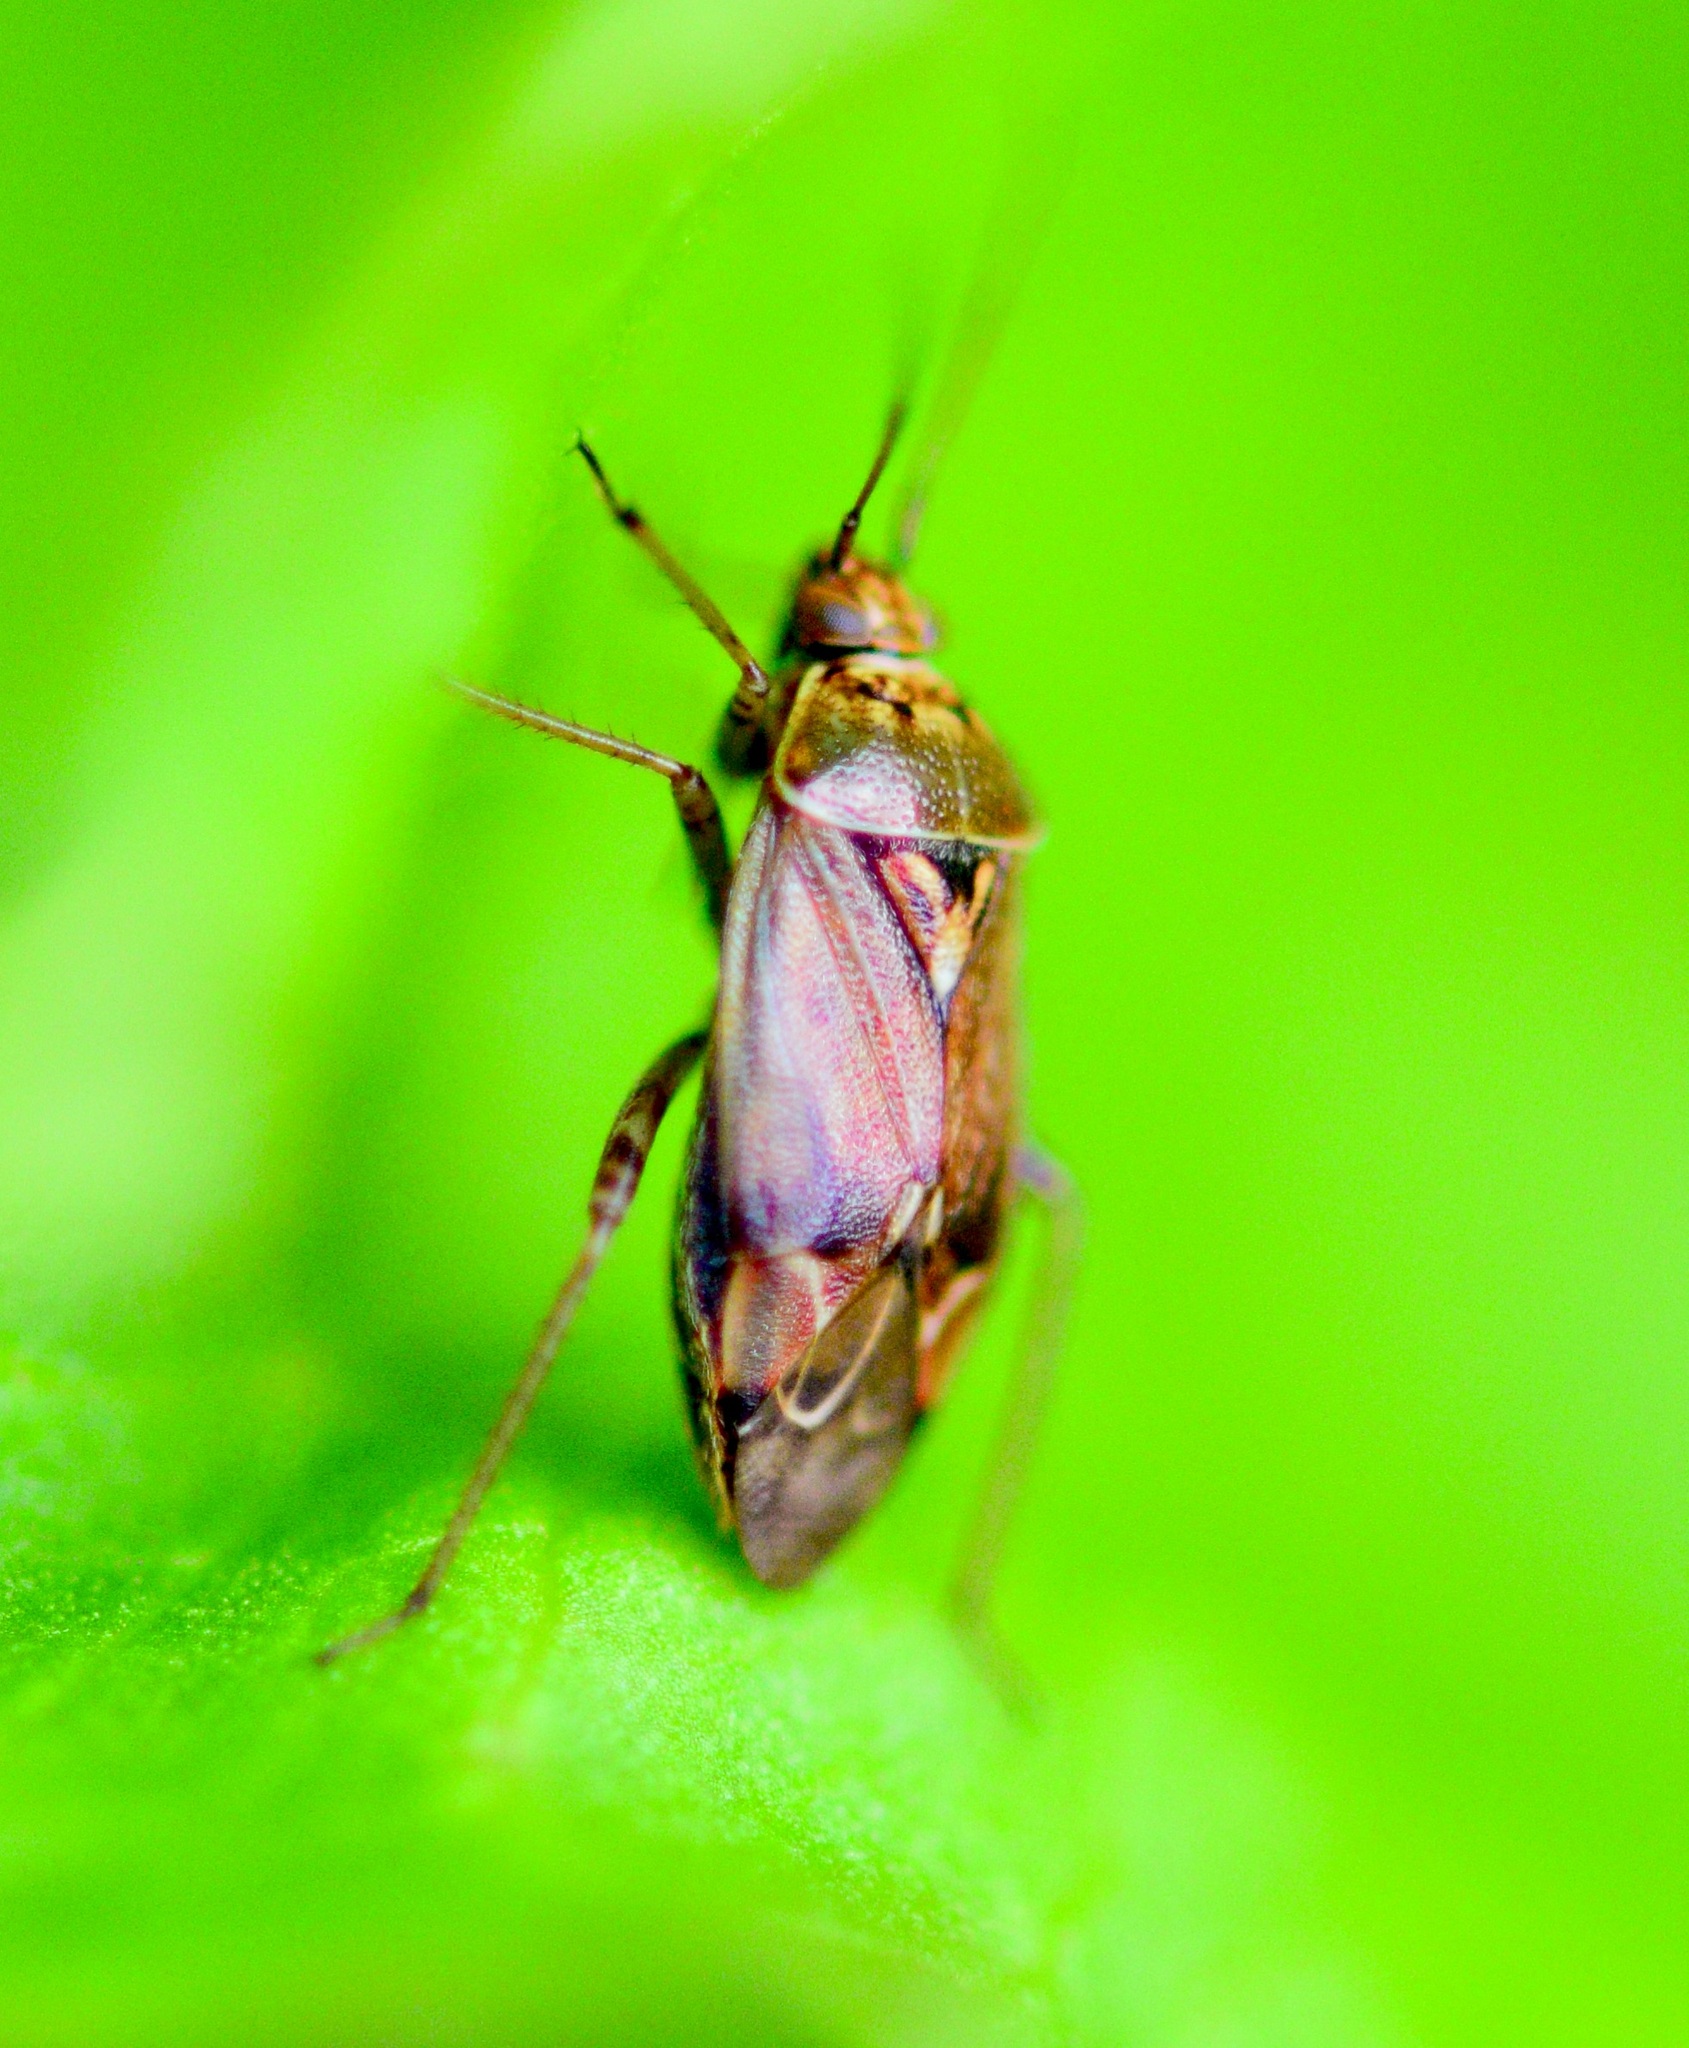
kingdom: Animalia
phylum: Arthropoda
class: Insecta
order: Hemiptera
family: Miridae
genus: Lygus
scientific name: Lygus lineolaris
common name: North american tarnished plant bug
